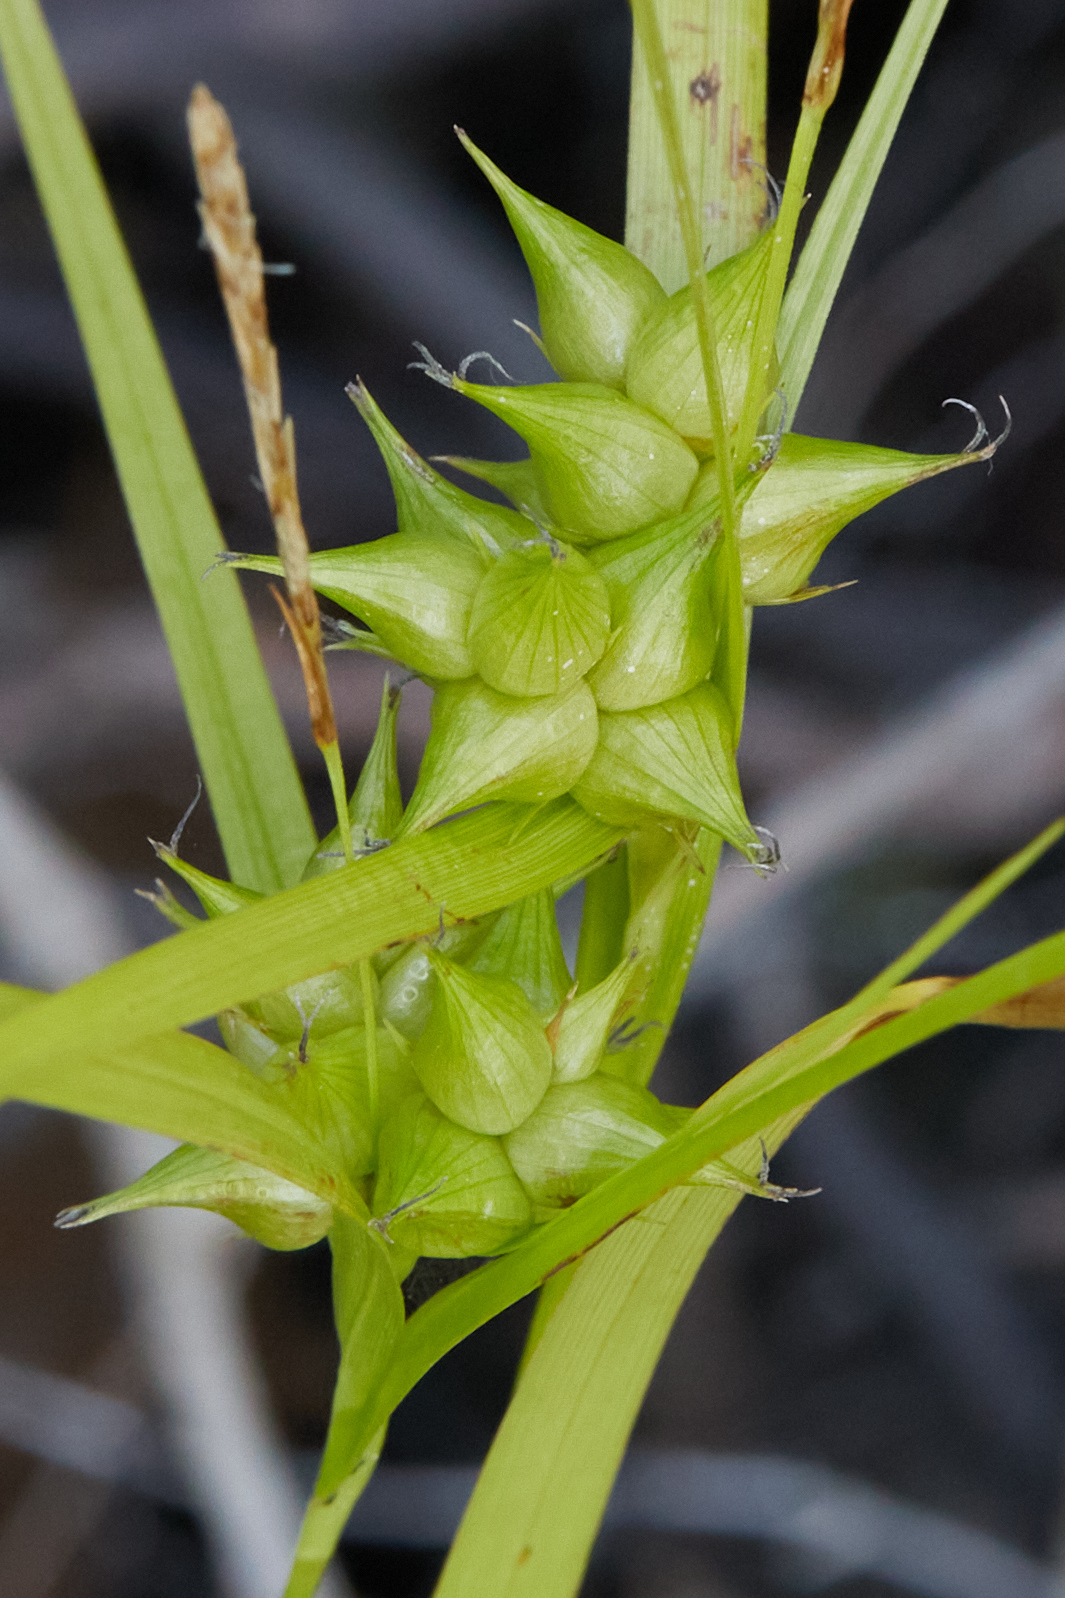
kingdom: Plantae
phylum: Tracheophyta
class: Liliopsida
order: Poales
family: Cyperaceae
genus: Carex
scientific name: Carex intumescens
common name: Greater bladder sedge
